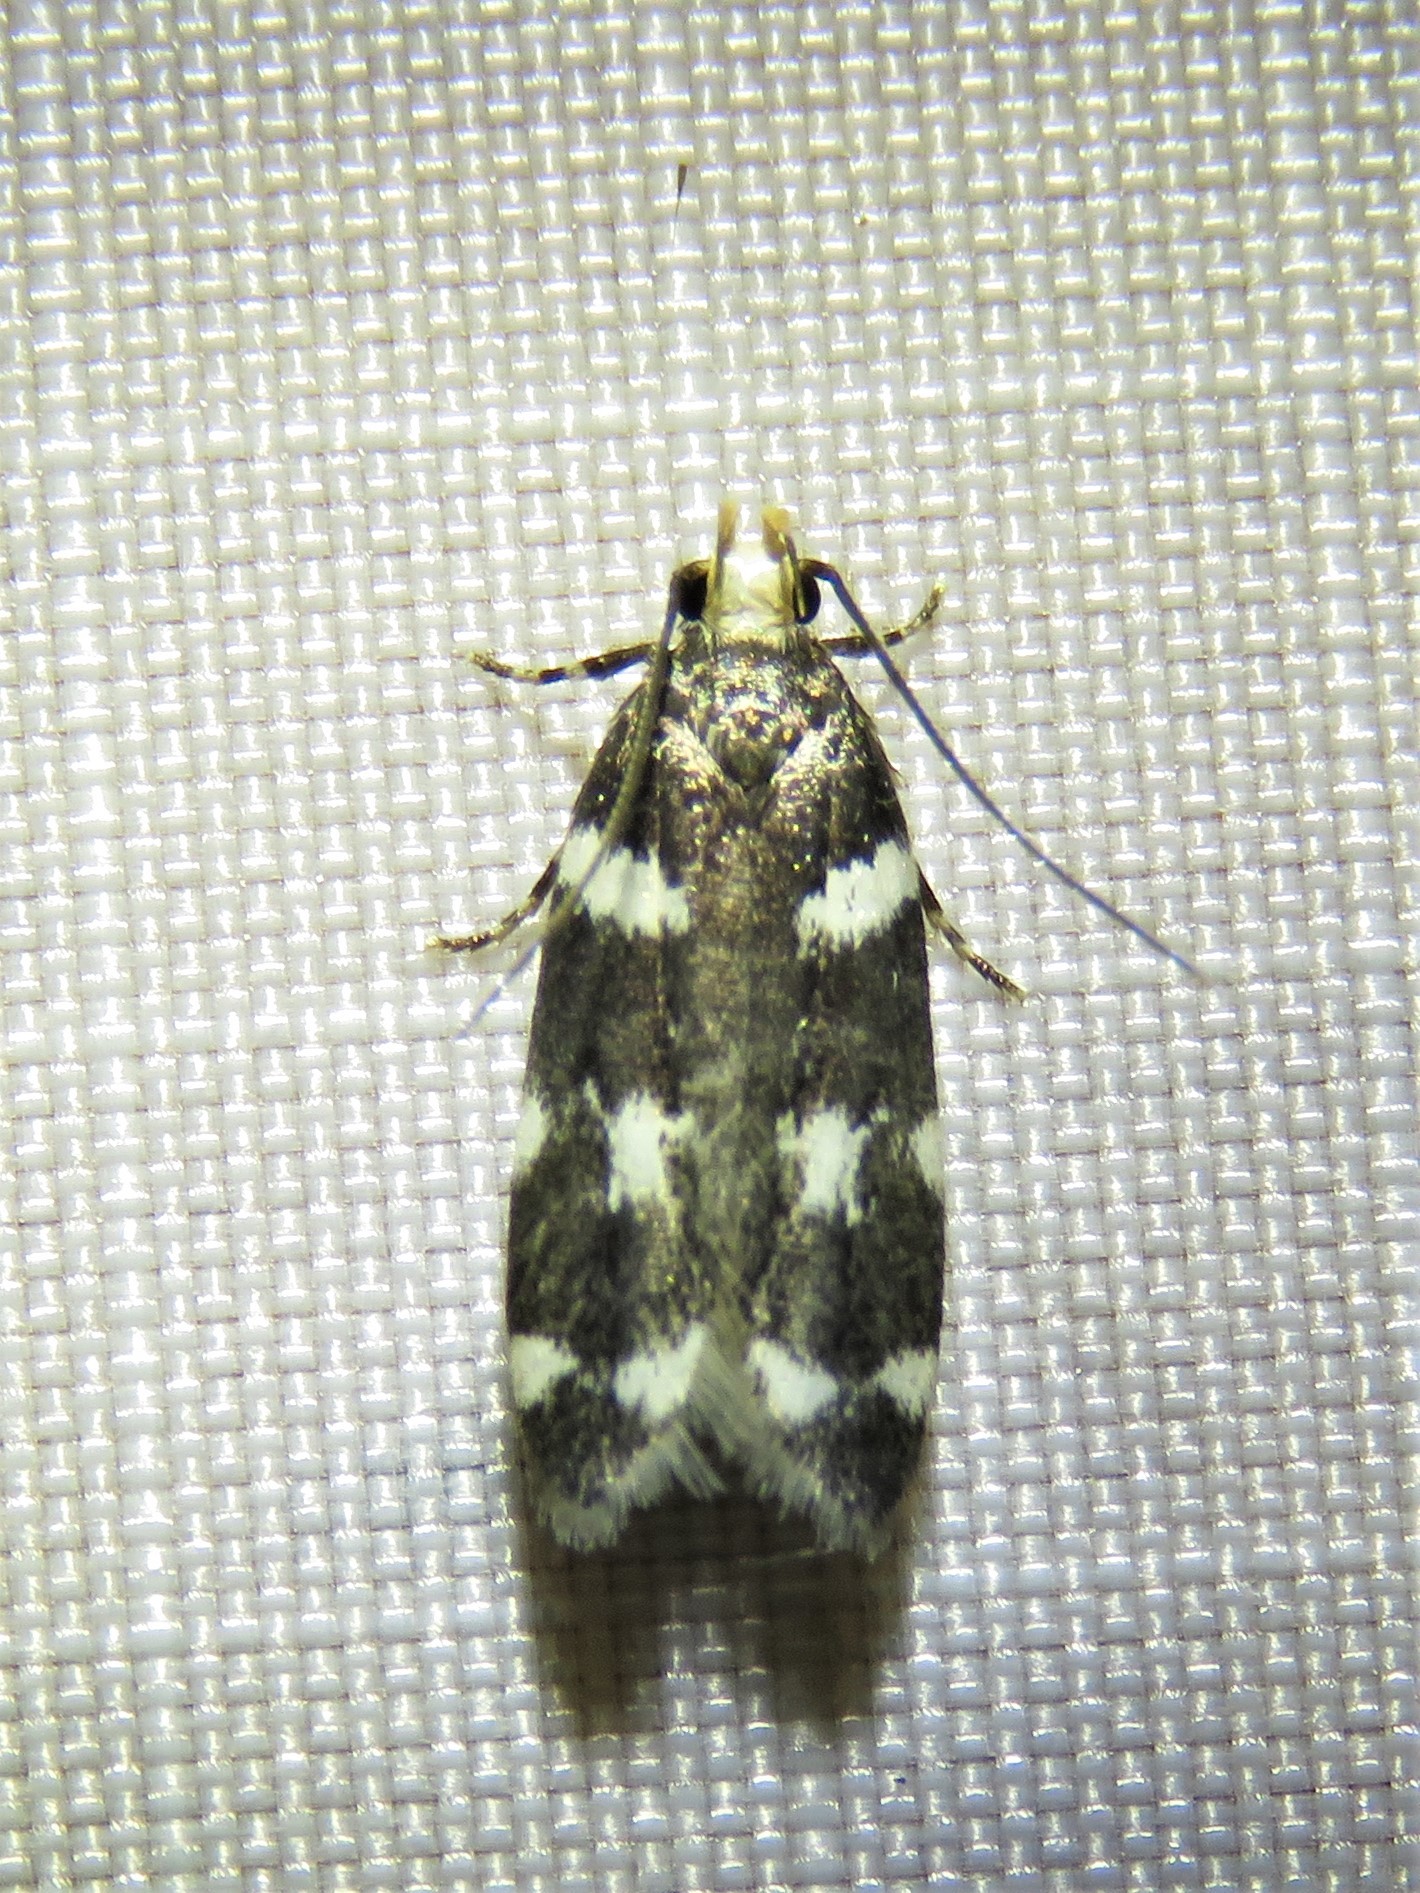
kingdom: Animalia
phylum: Arthropoda
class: Insecta
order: Lepidoptera
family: Gelechiidae
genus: Fascista
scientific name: Fascista quinella
